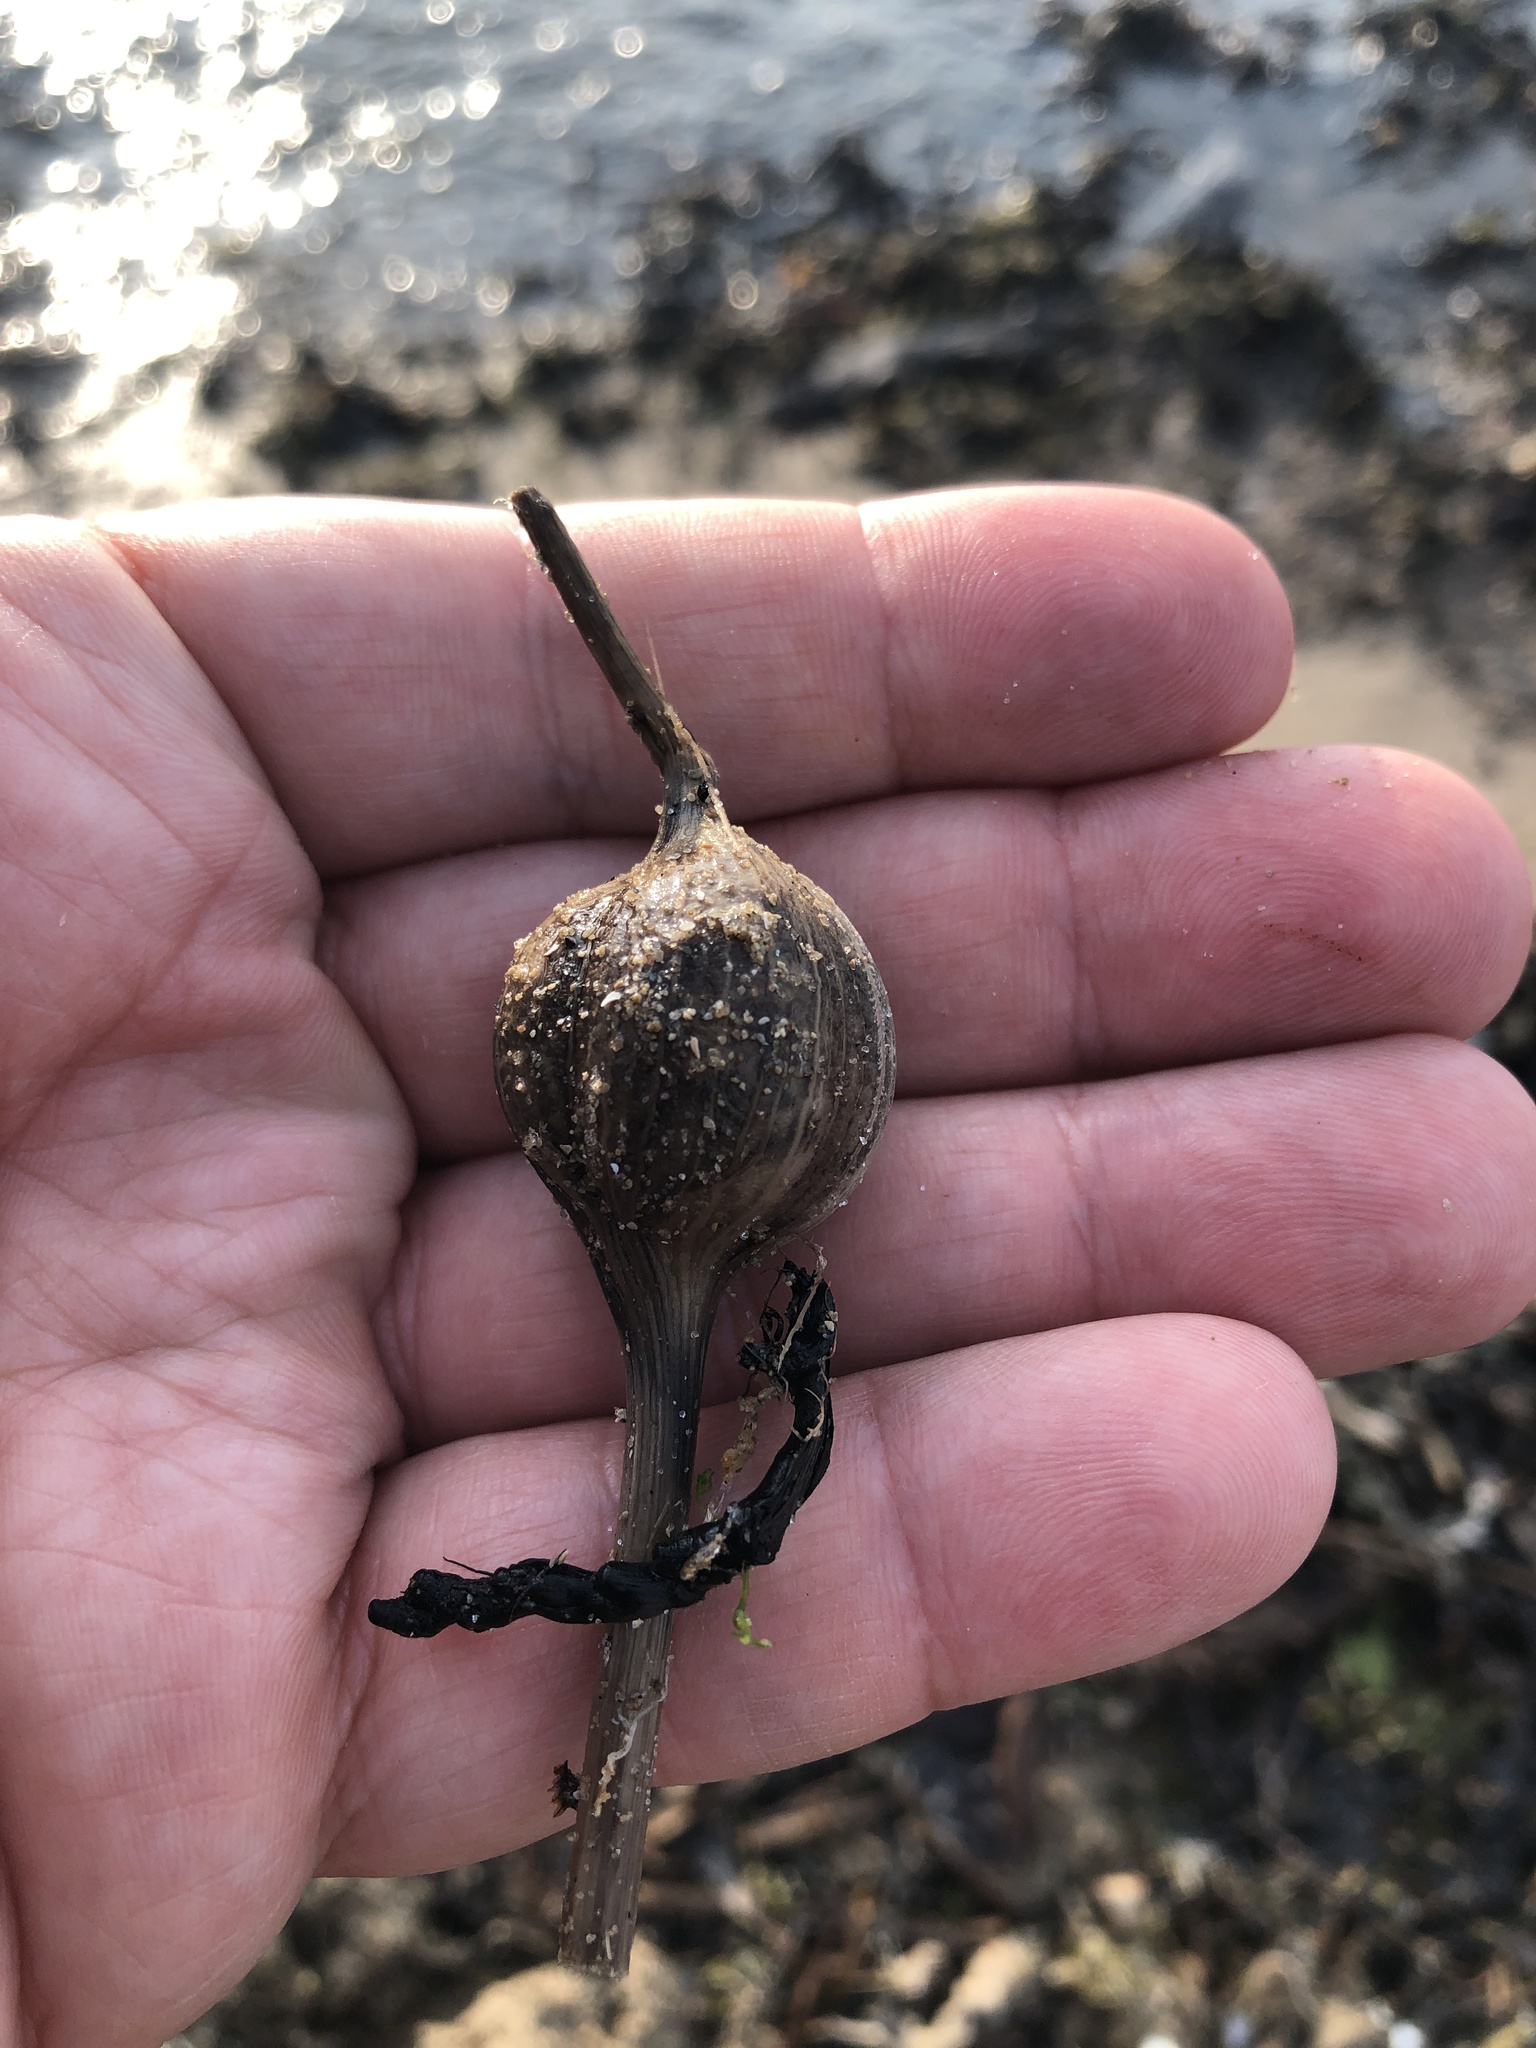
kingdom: Animalia
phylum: Arthropoda
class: Insecta
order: Diptera
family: Tephritidae
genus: Eurosta
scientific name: Eurosta solidaginis
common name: Goldenrod gall fly
